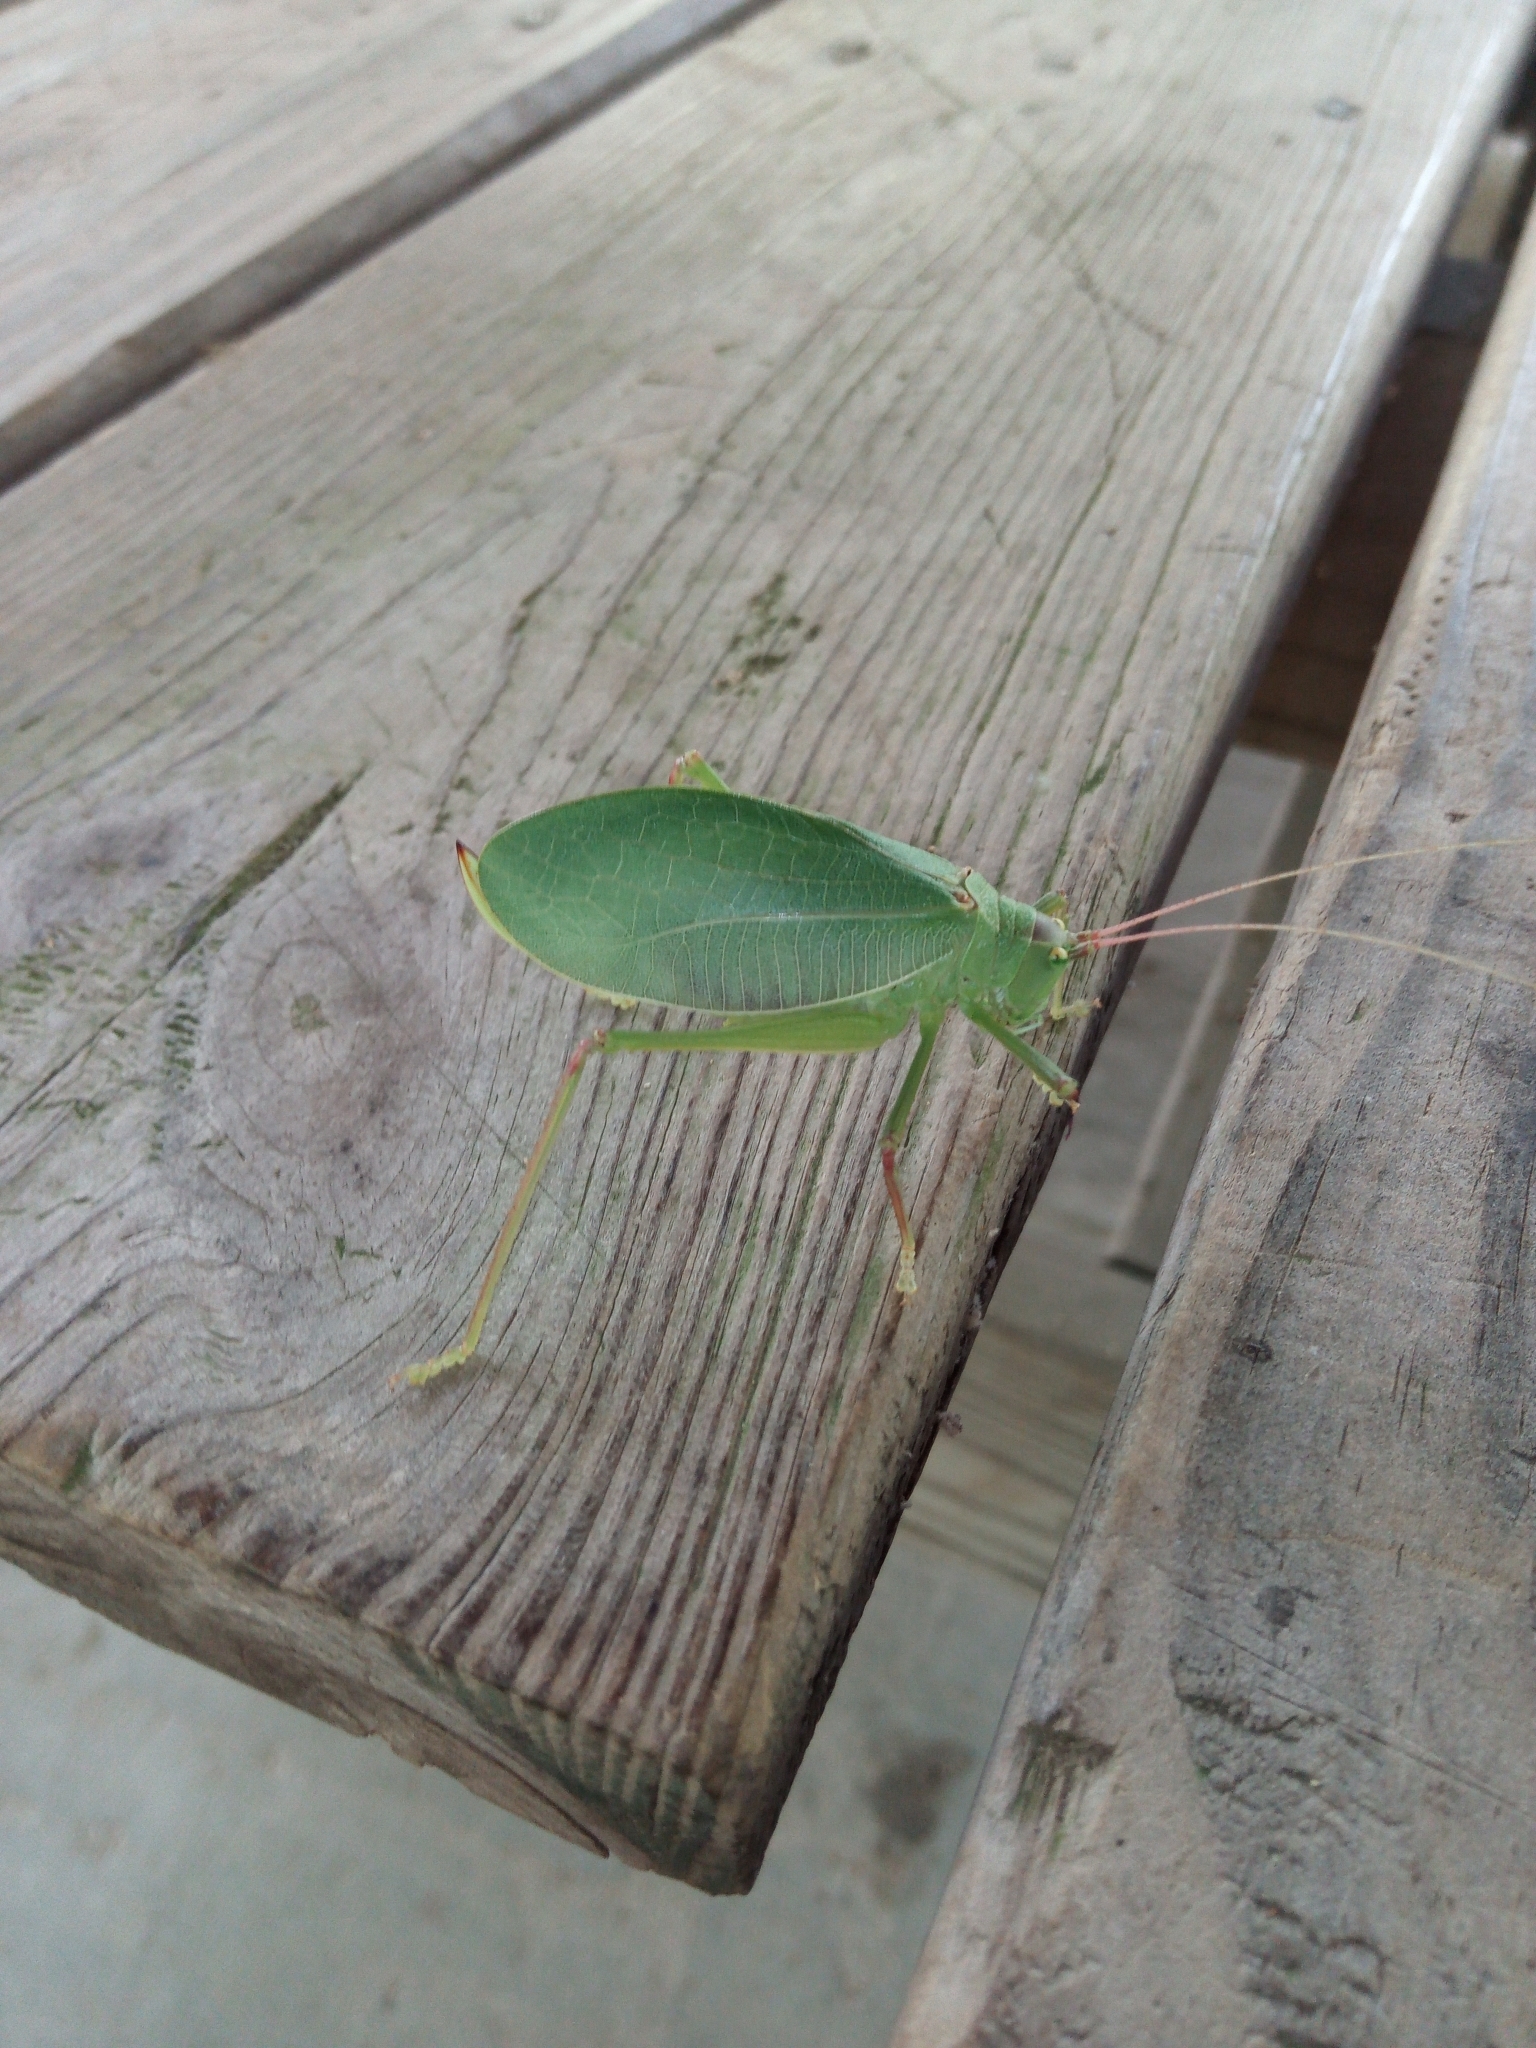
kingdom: Animalia
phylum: Arthropoda
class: Insecta
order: Orthoptera
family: Tettigoniidae
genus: Pterophylla
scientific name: Pterophylla camellifolia
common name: Common true katydid
